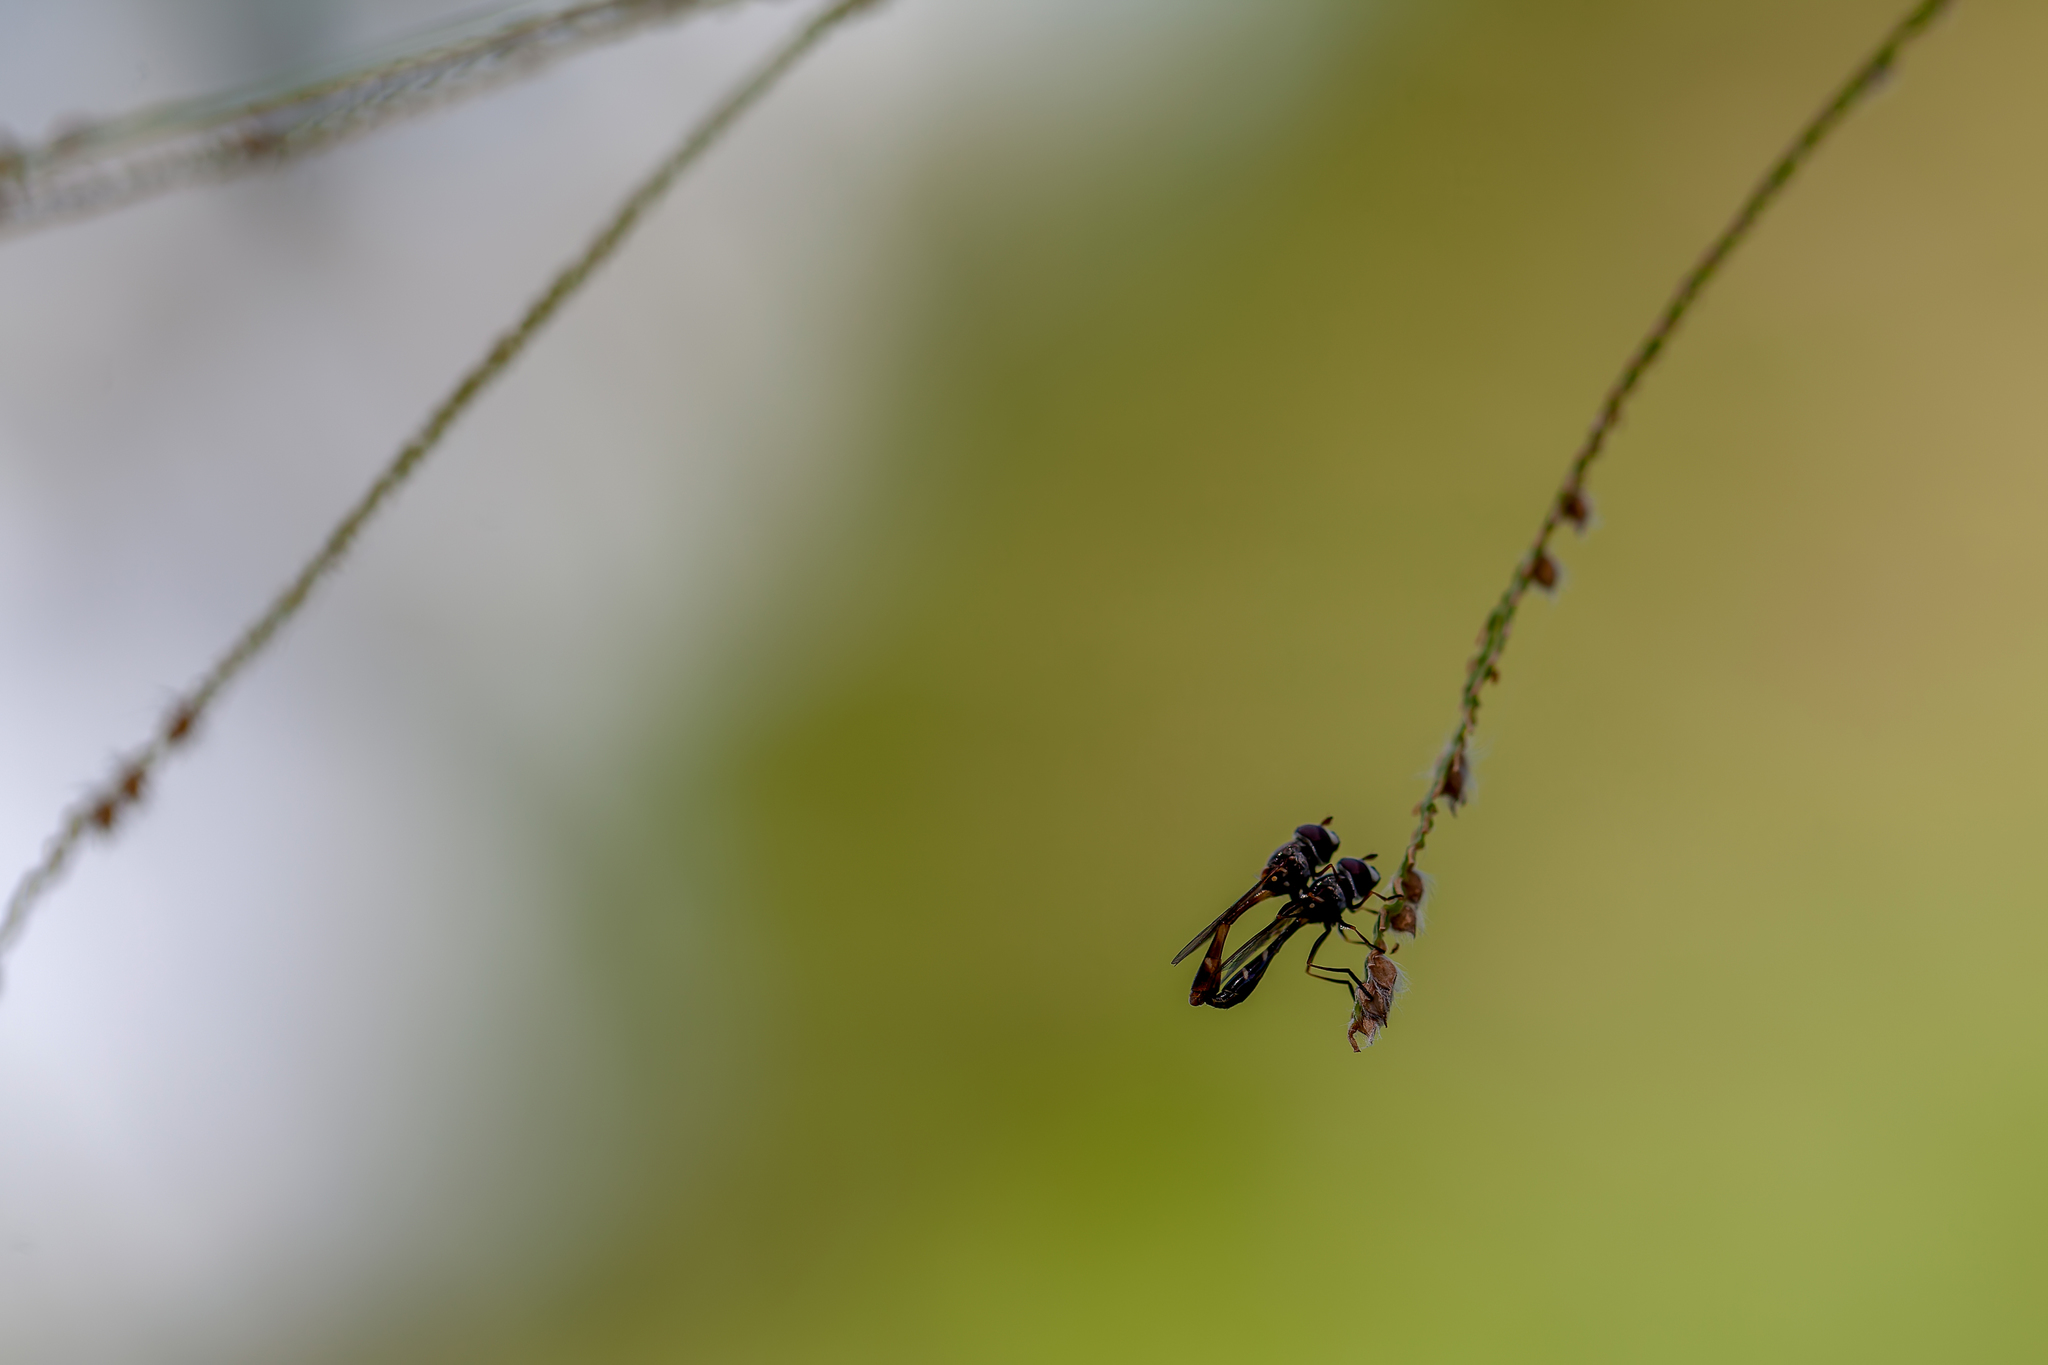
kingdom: Animalia
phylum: Arthropoda
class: Insecta
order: Diptera
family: Syrphidae
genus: Dioprosopa
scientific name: Dioprosopa clavatus
